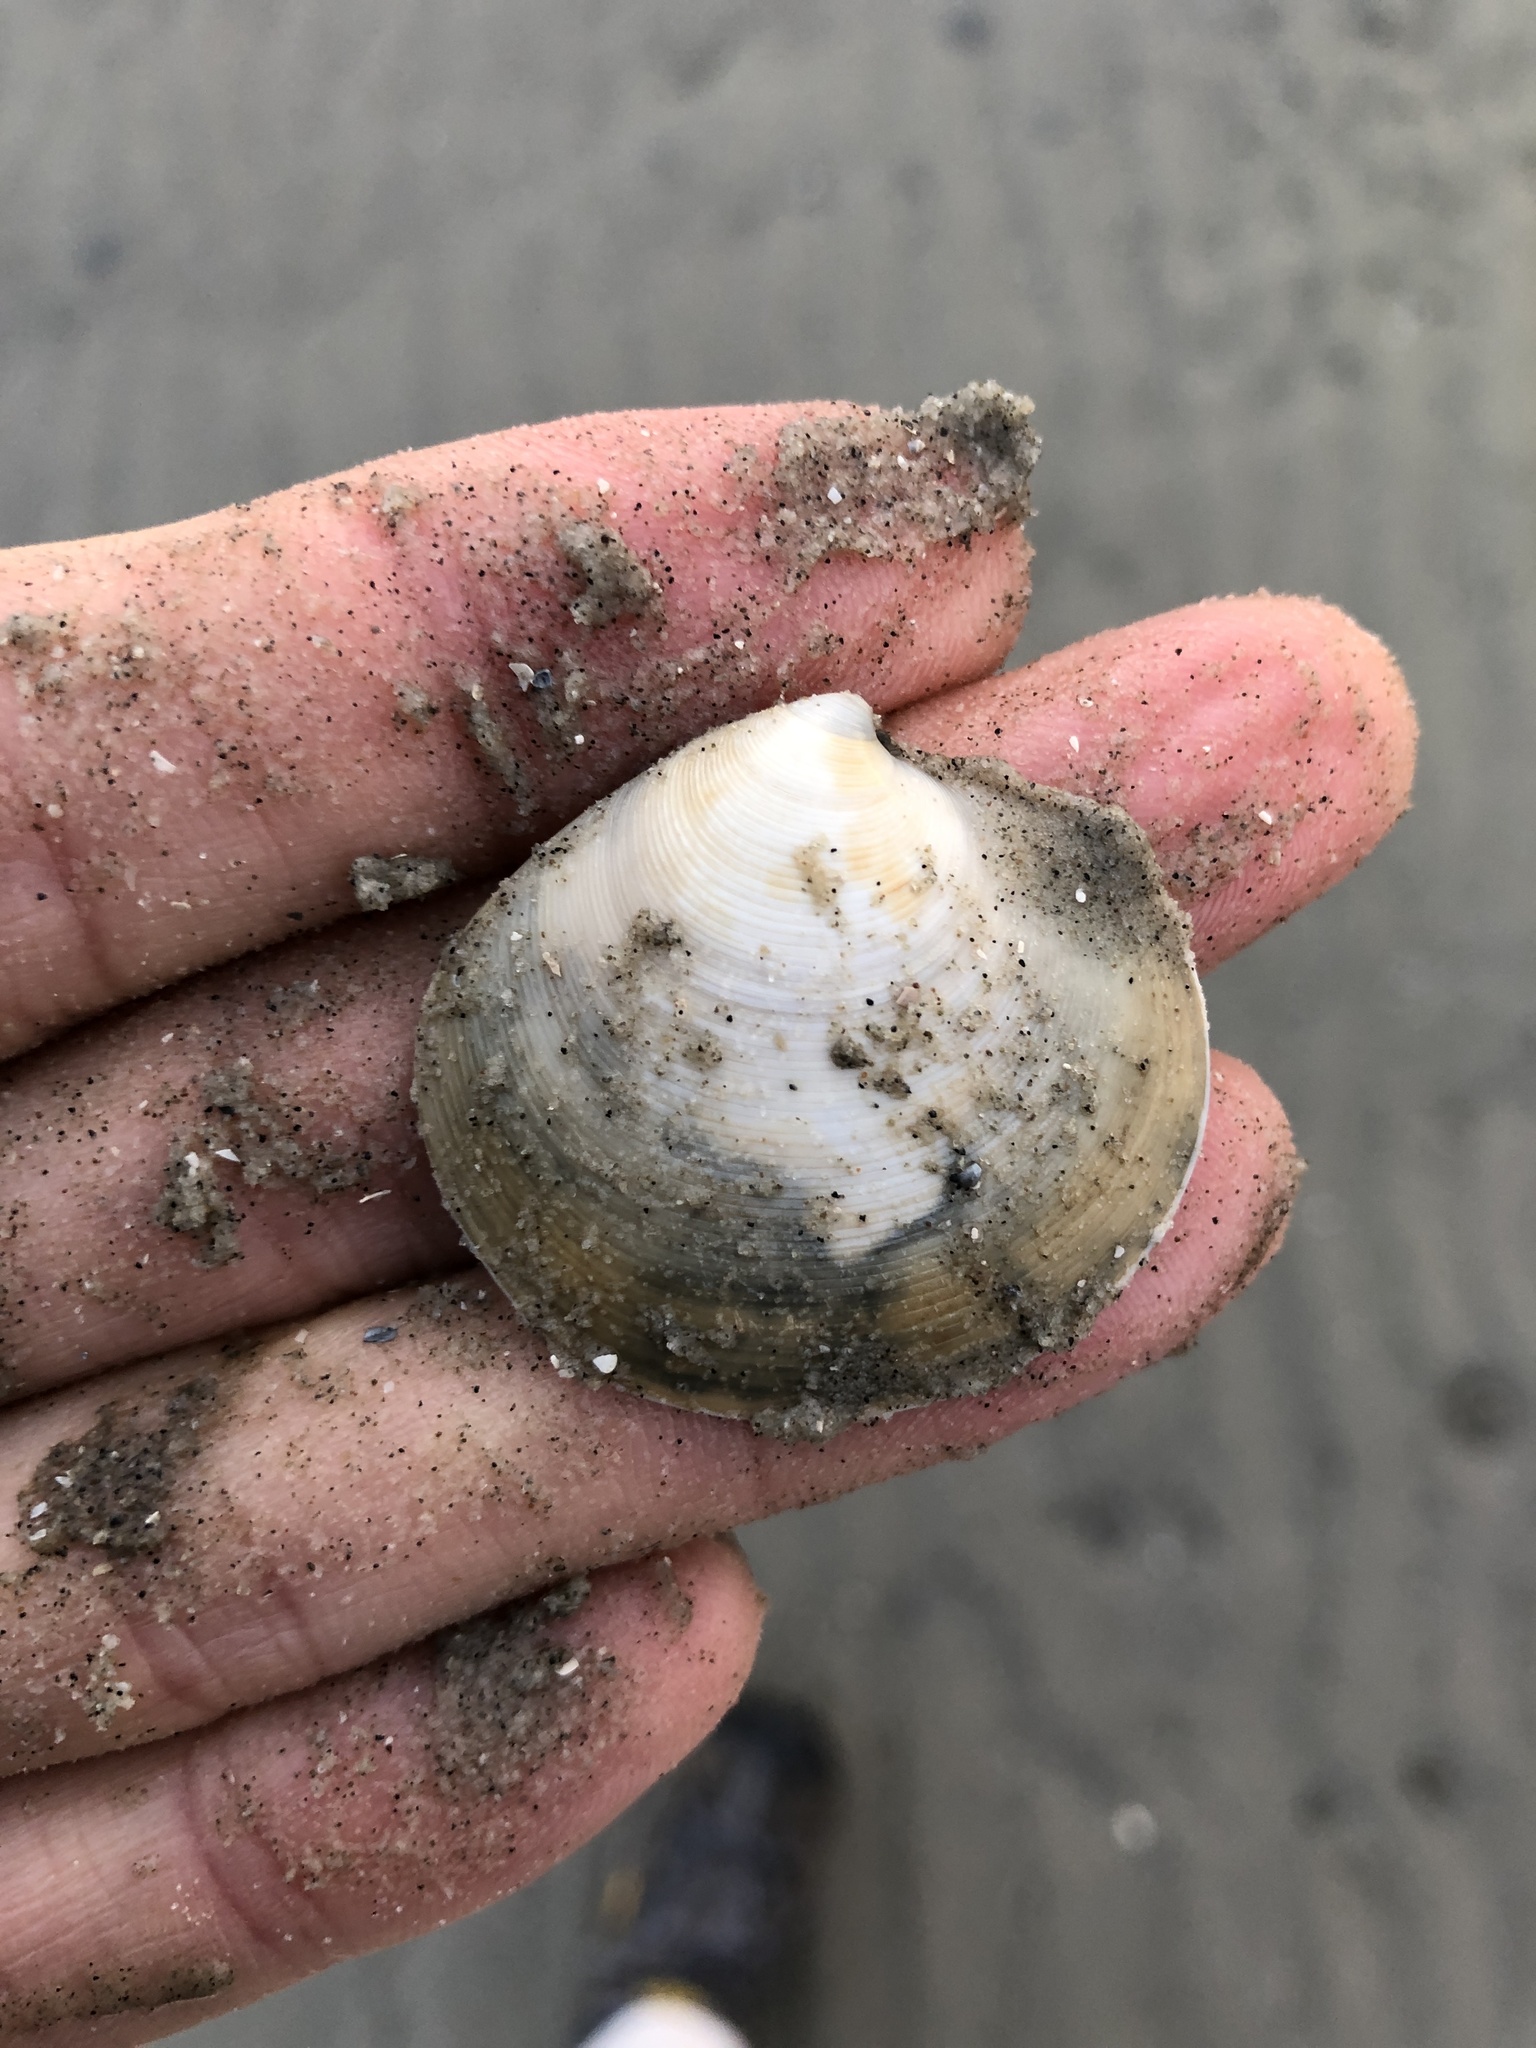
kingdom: Animalia
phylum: Mollusca
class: Bivalvia
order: Venerida
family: Veneridae
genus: Dosinia
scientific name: Dosinia discus
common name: Disk dosinia
